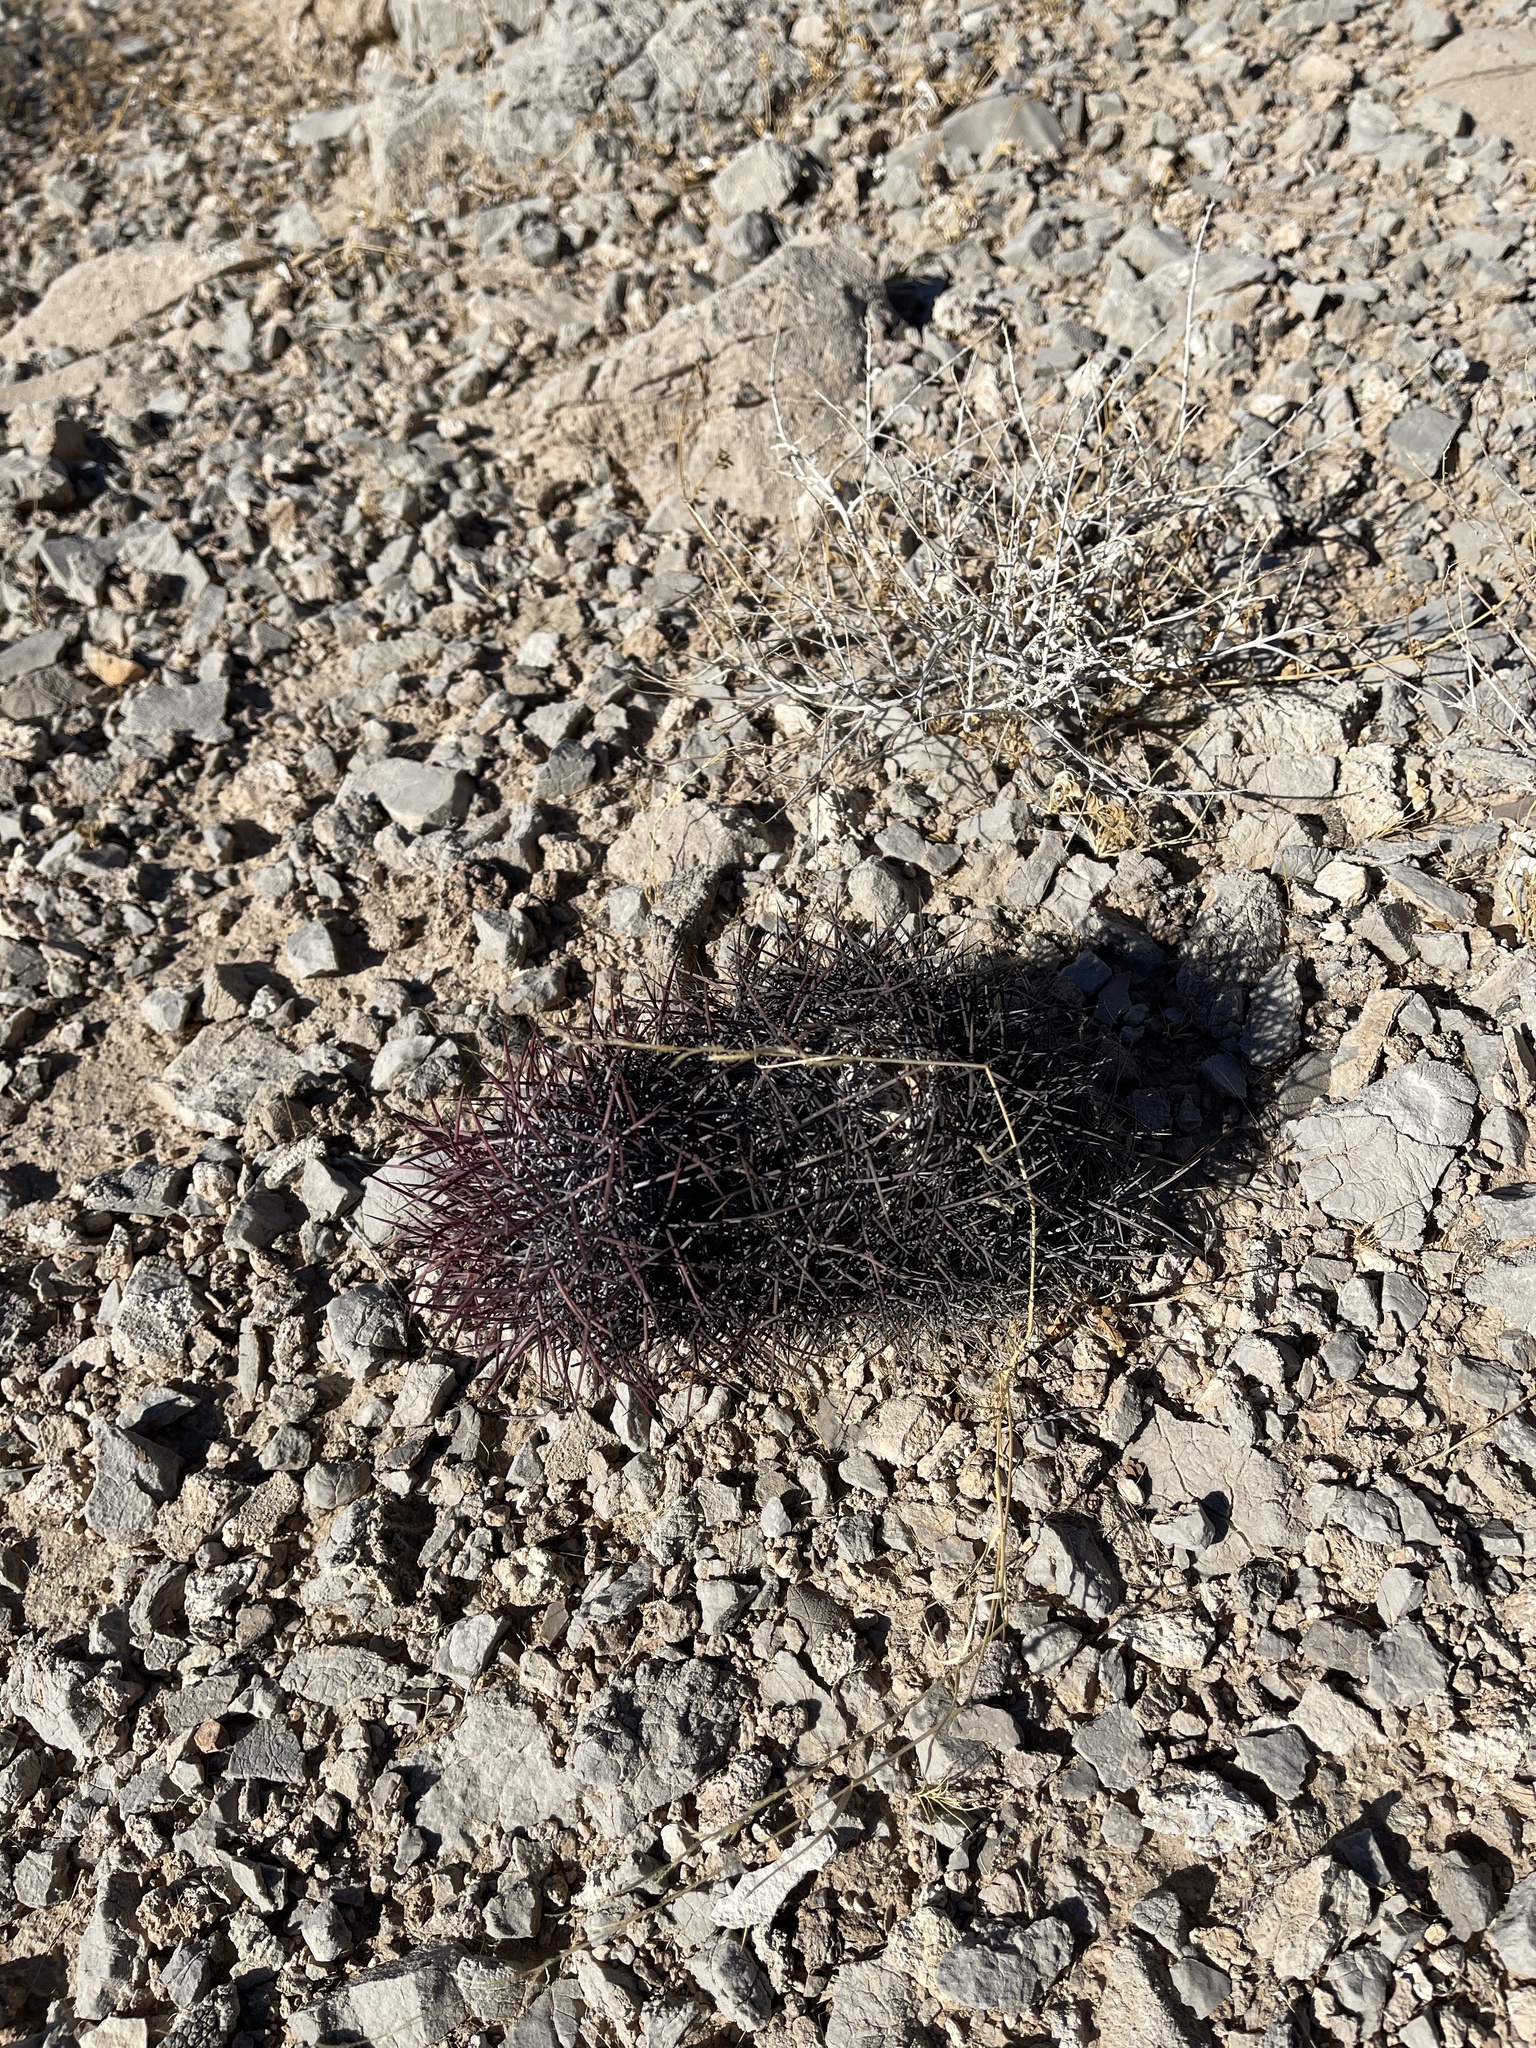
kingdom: Plantae
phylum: Tracheophyta
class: Magnoliopsida
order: Caryophyllales
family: Cactaceae
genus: Sclerocactus
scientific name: Sclerocactus johnsonii
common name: Eight-spine fishhook cactus
